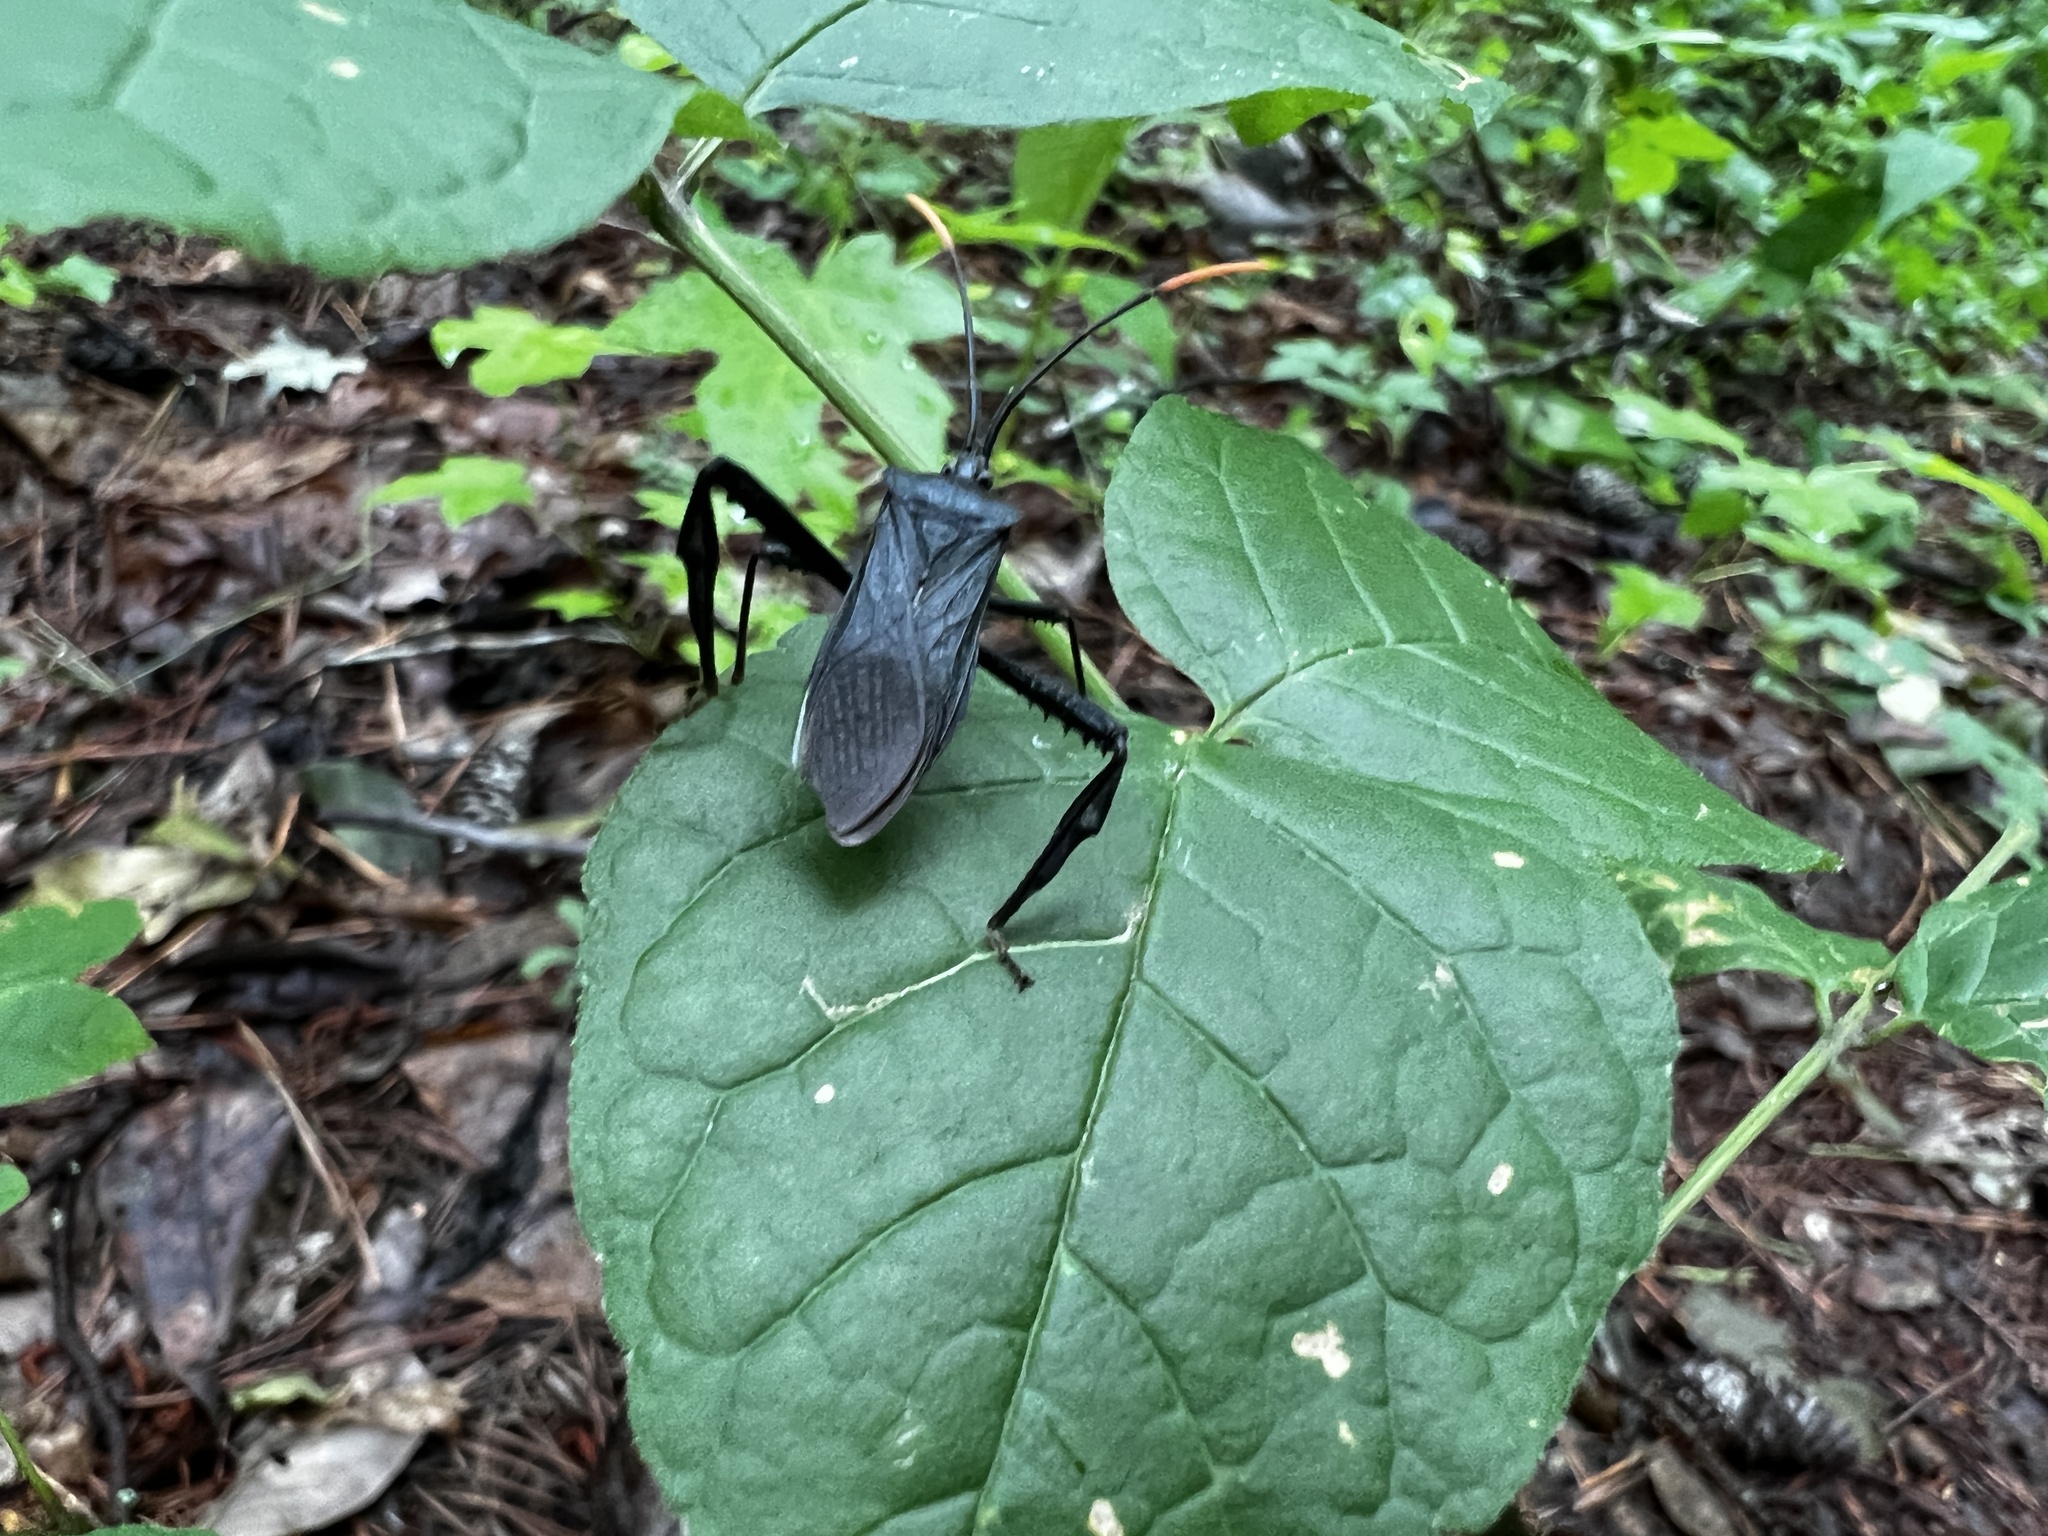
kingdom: Animalia
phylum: Arthropoda
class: Insecta
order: Hemiptera
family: Coreidae
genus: Acanthocephala
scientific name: Acanthocephala terminalis
